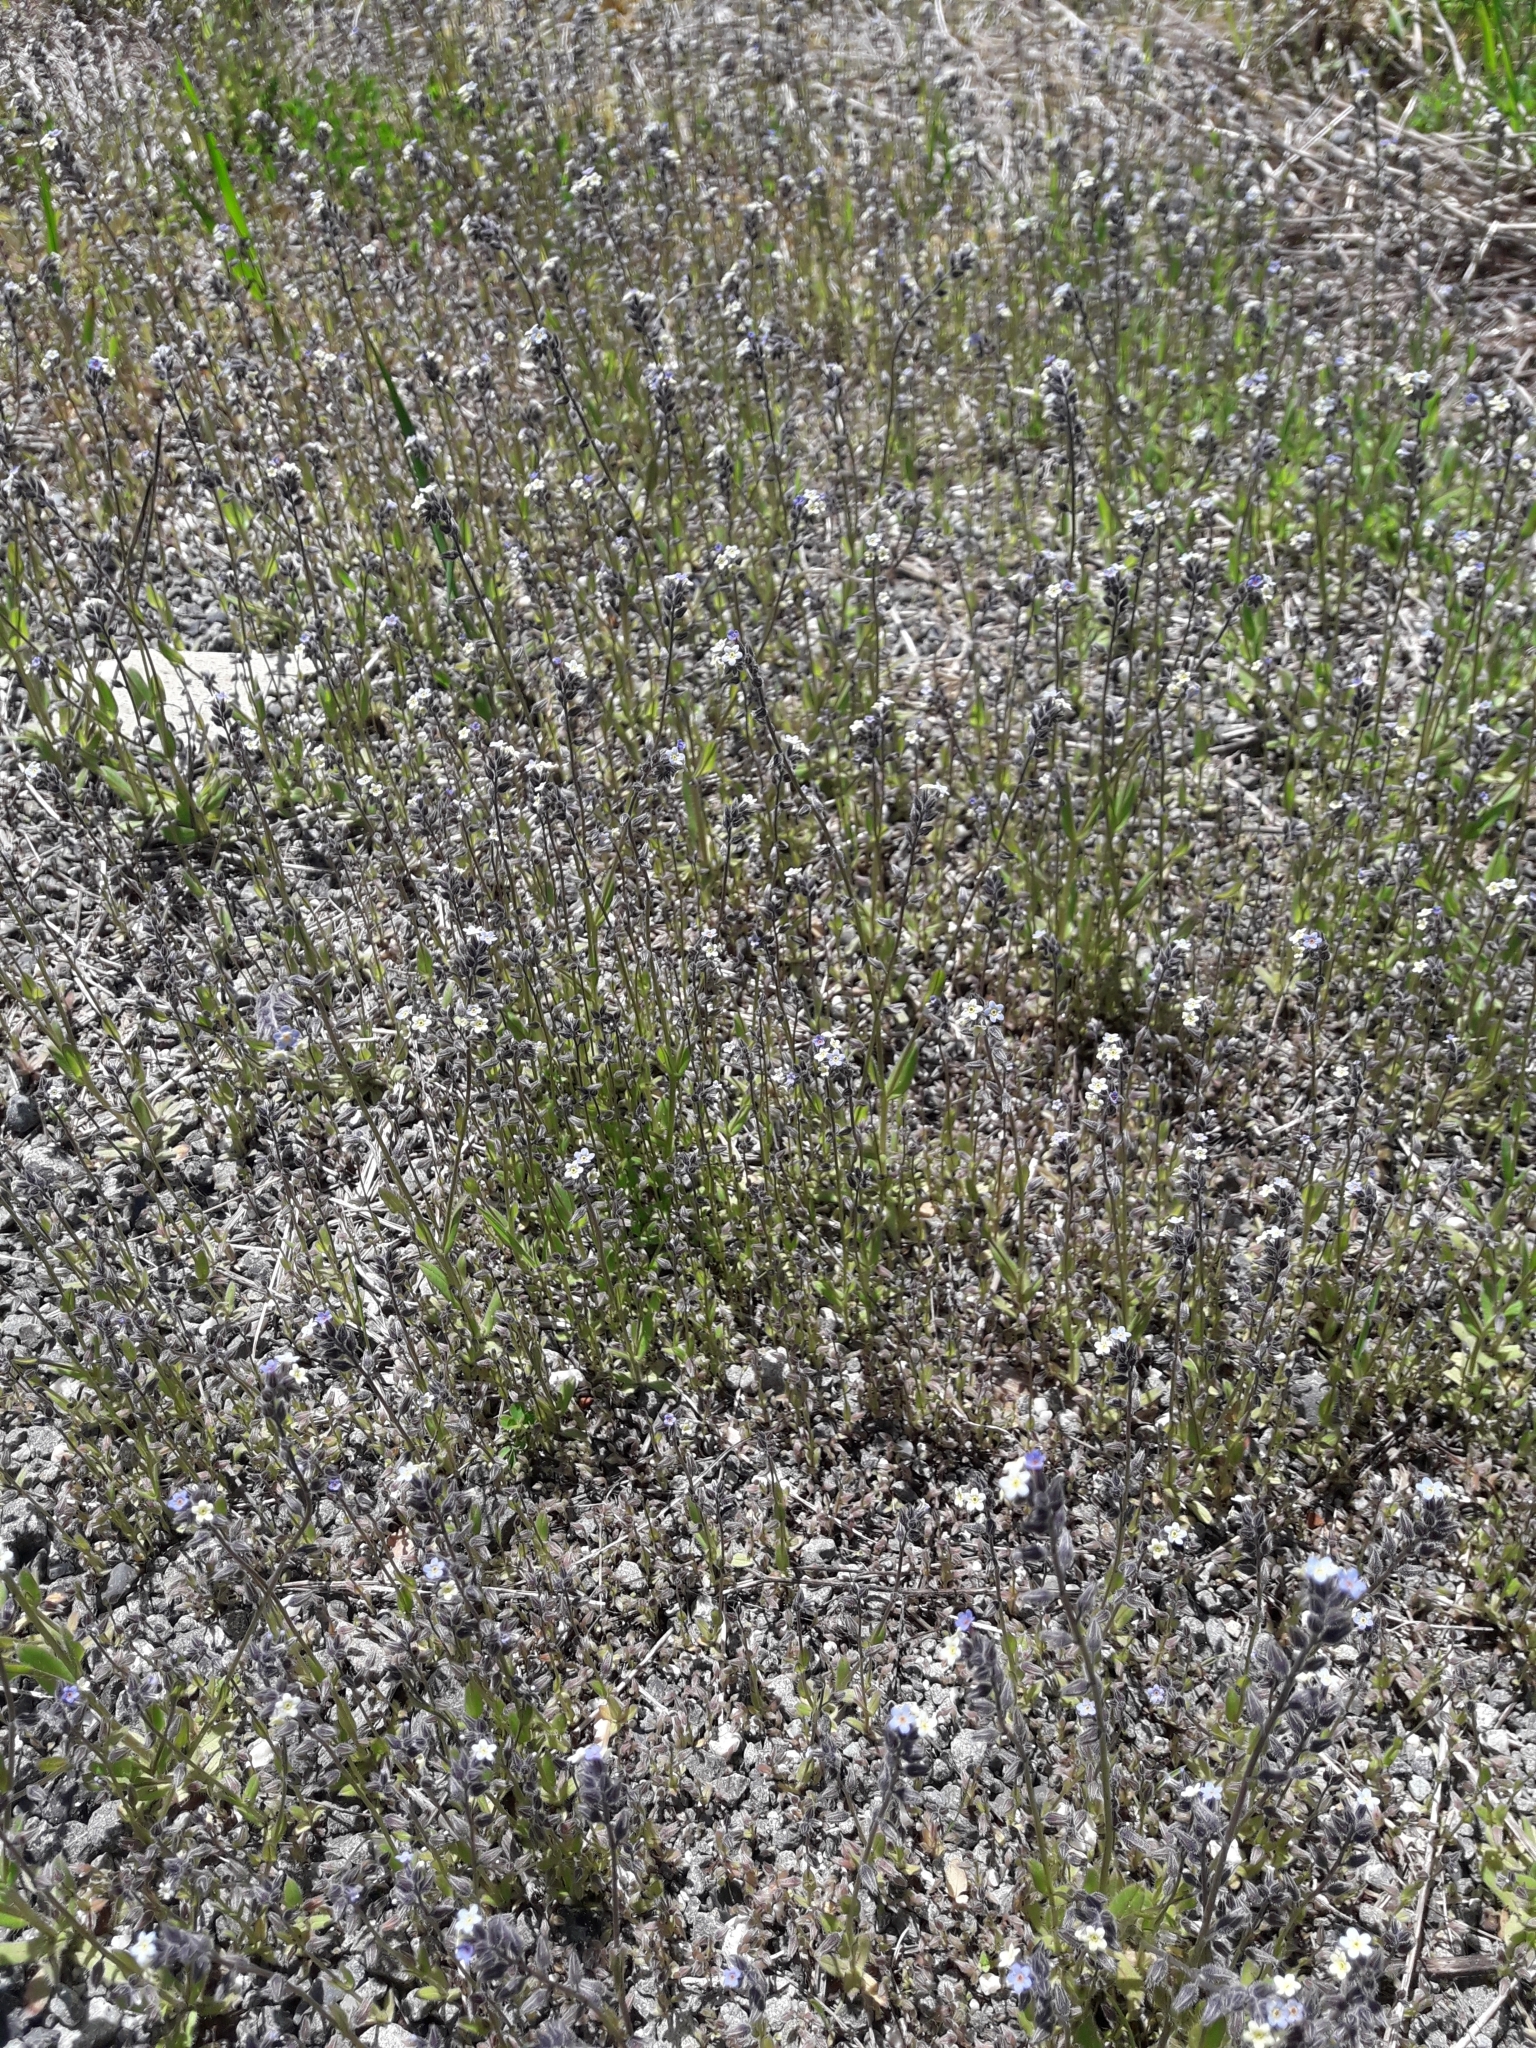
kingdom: Plantae
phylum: Tracheophyta
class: Magnoliopsida
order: Boraginales
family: Boraginaceae
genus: Myosotis
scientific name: Myosotis discolor
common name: Changing forget-me-not
